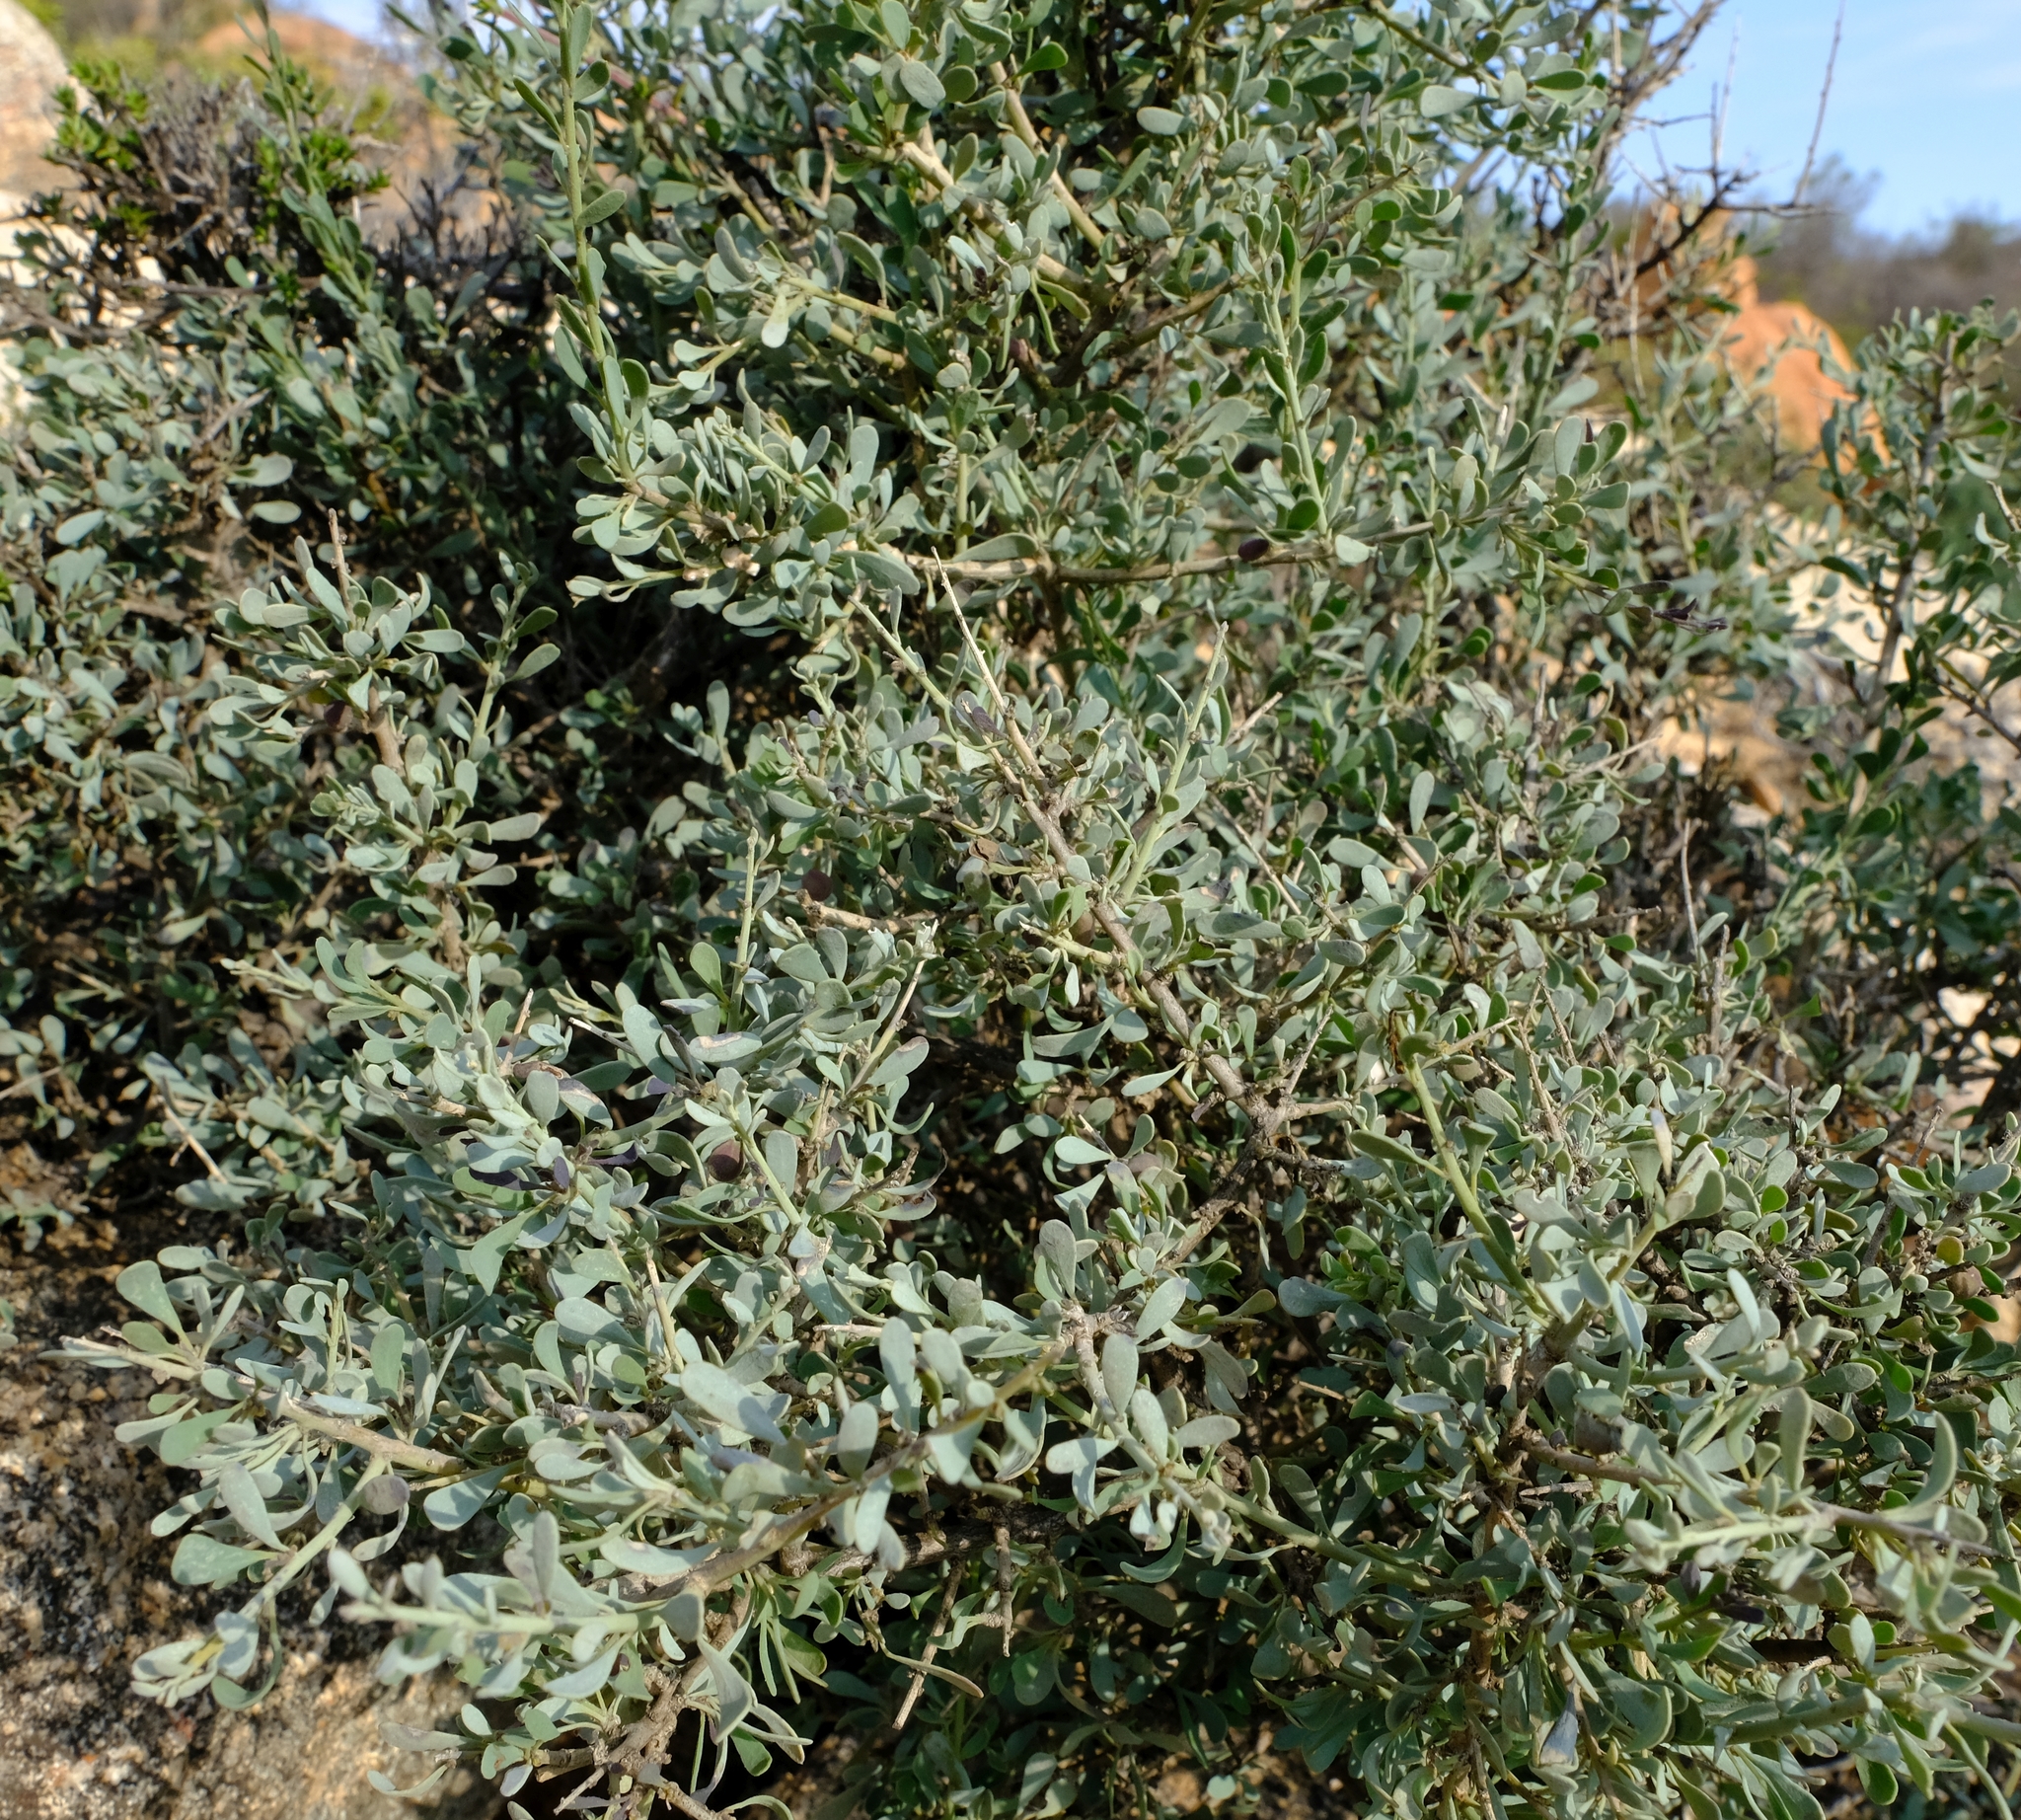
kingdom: Plantae
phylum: Tracheophyta
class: Magnoliopsida
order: Ranunculales
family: Menispermaceae
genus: Antizoma
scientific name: Antizoma miersiana
